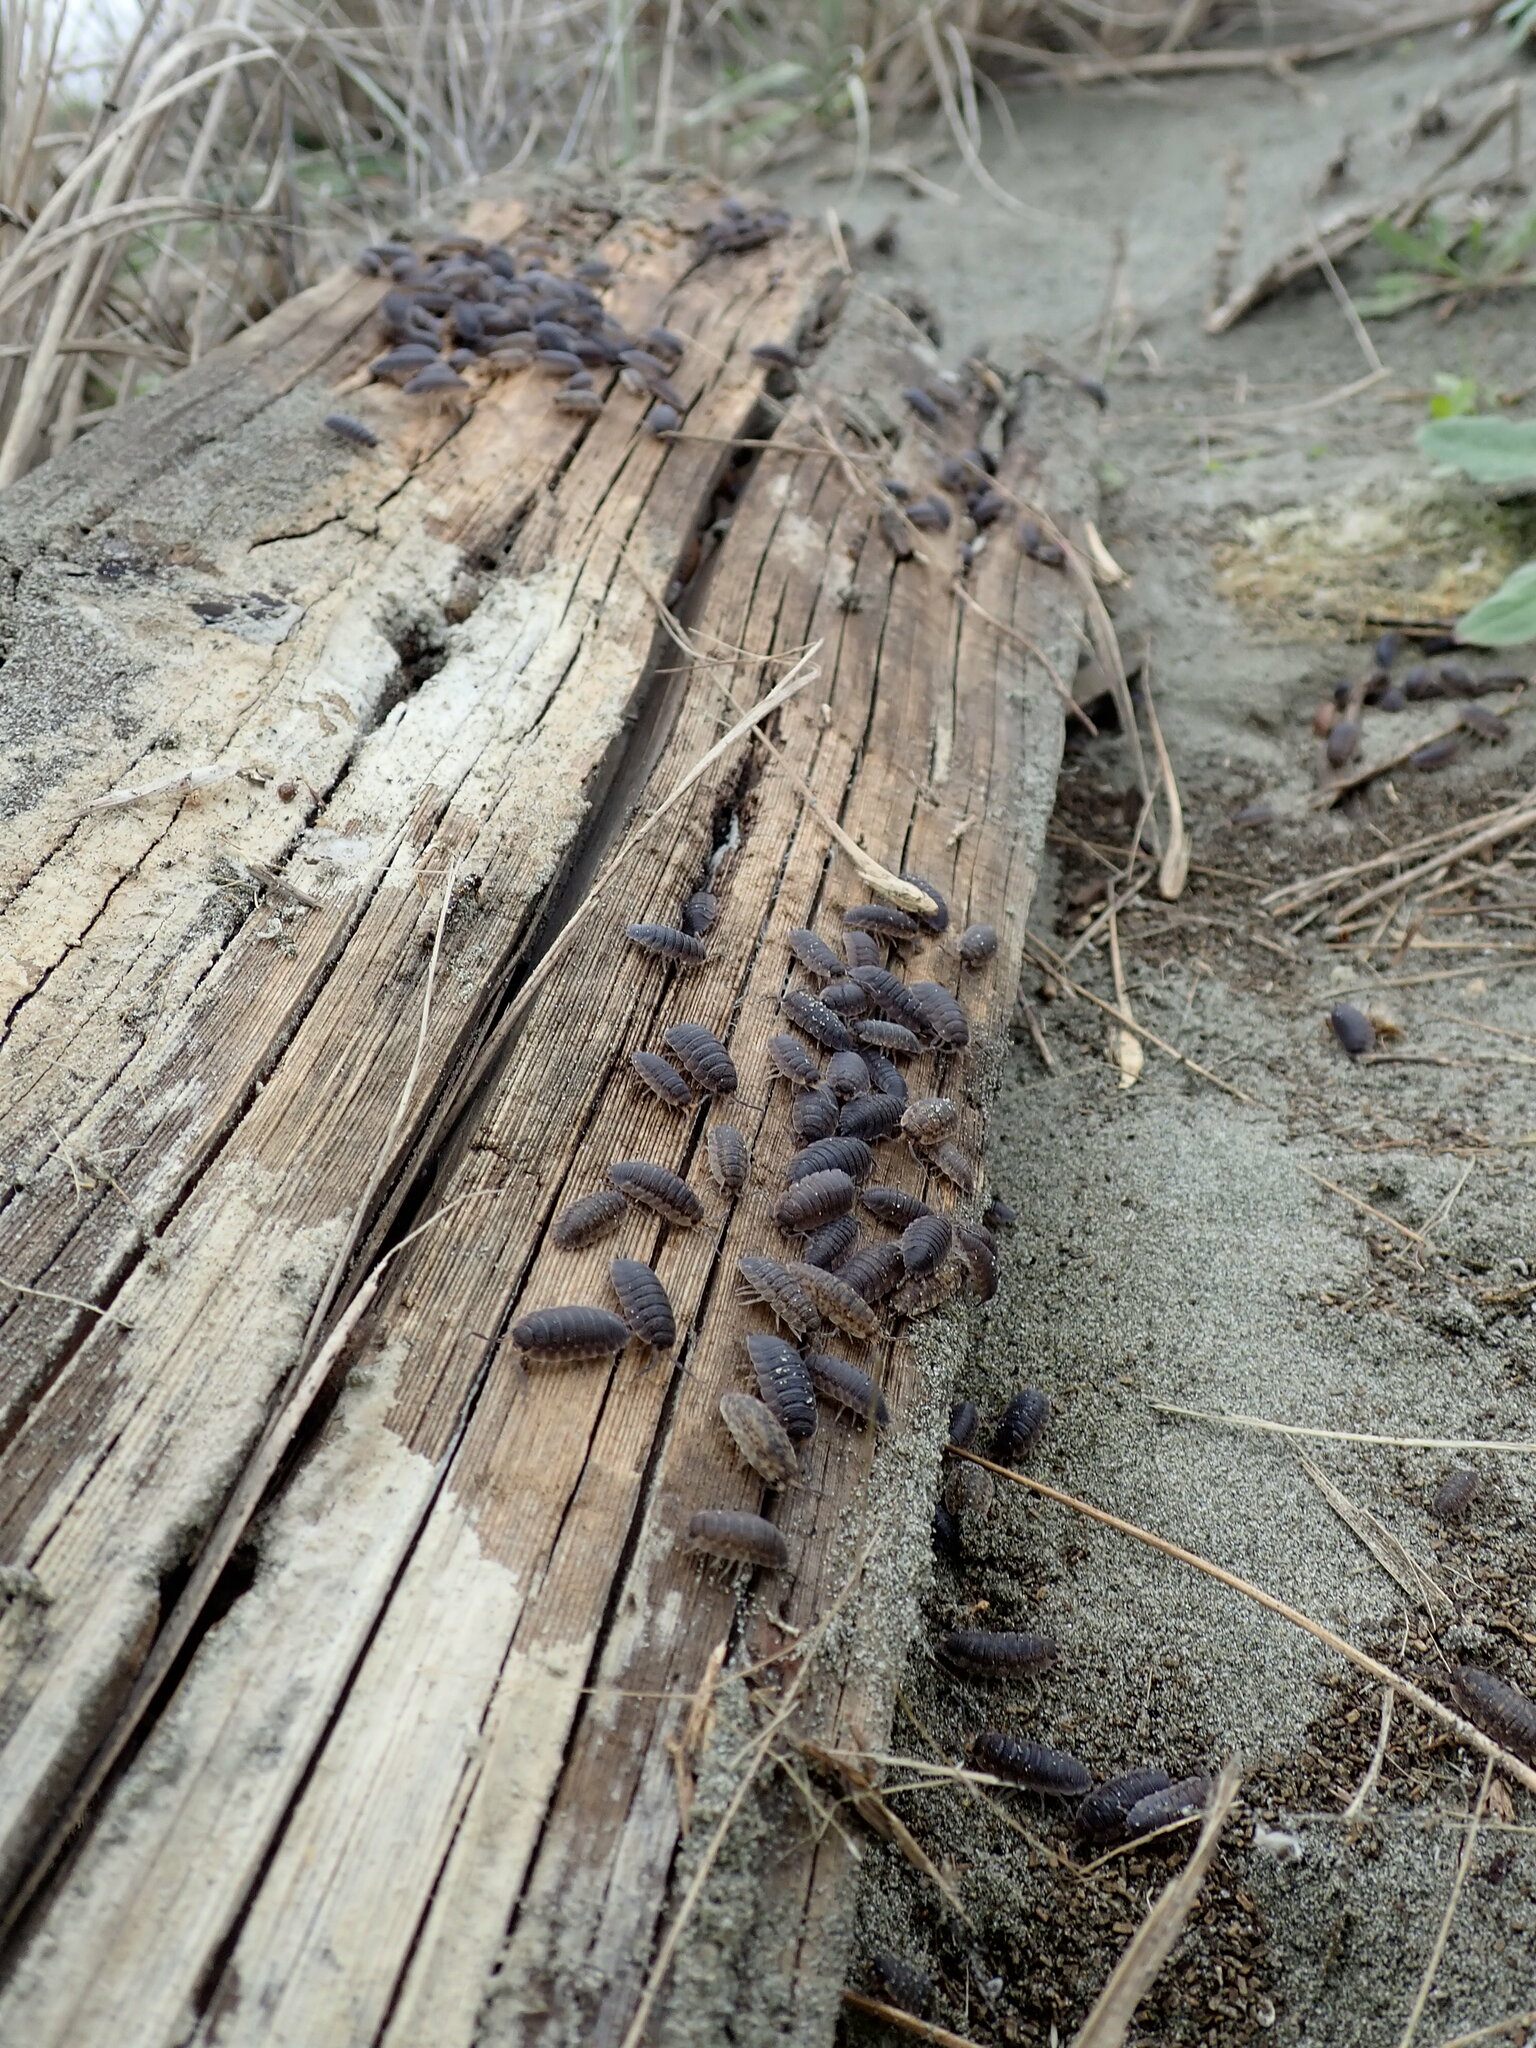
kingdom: Animalia
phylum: Arthropoda
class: Malacostraca
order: Isopoda
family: Porcellionidae
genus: Porcellio
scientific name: Porcellio scaber
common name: Common rough woodlouse
